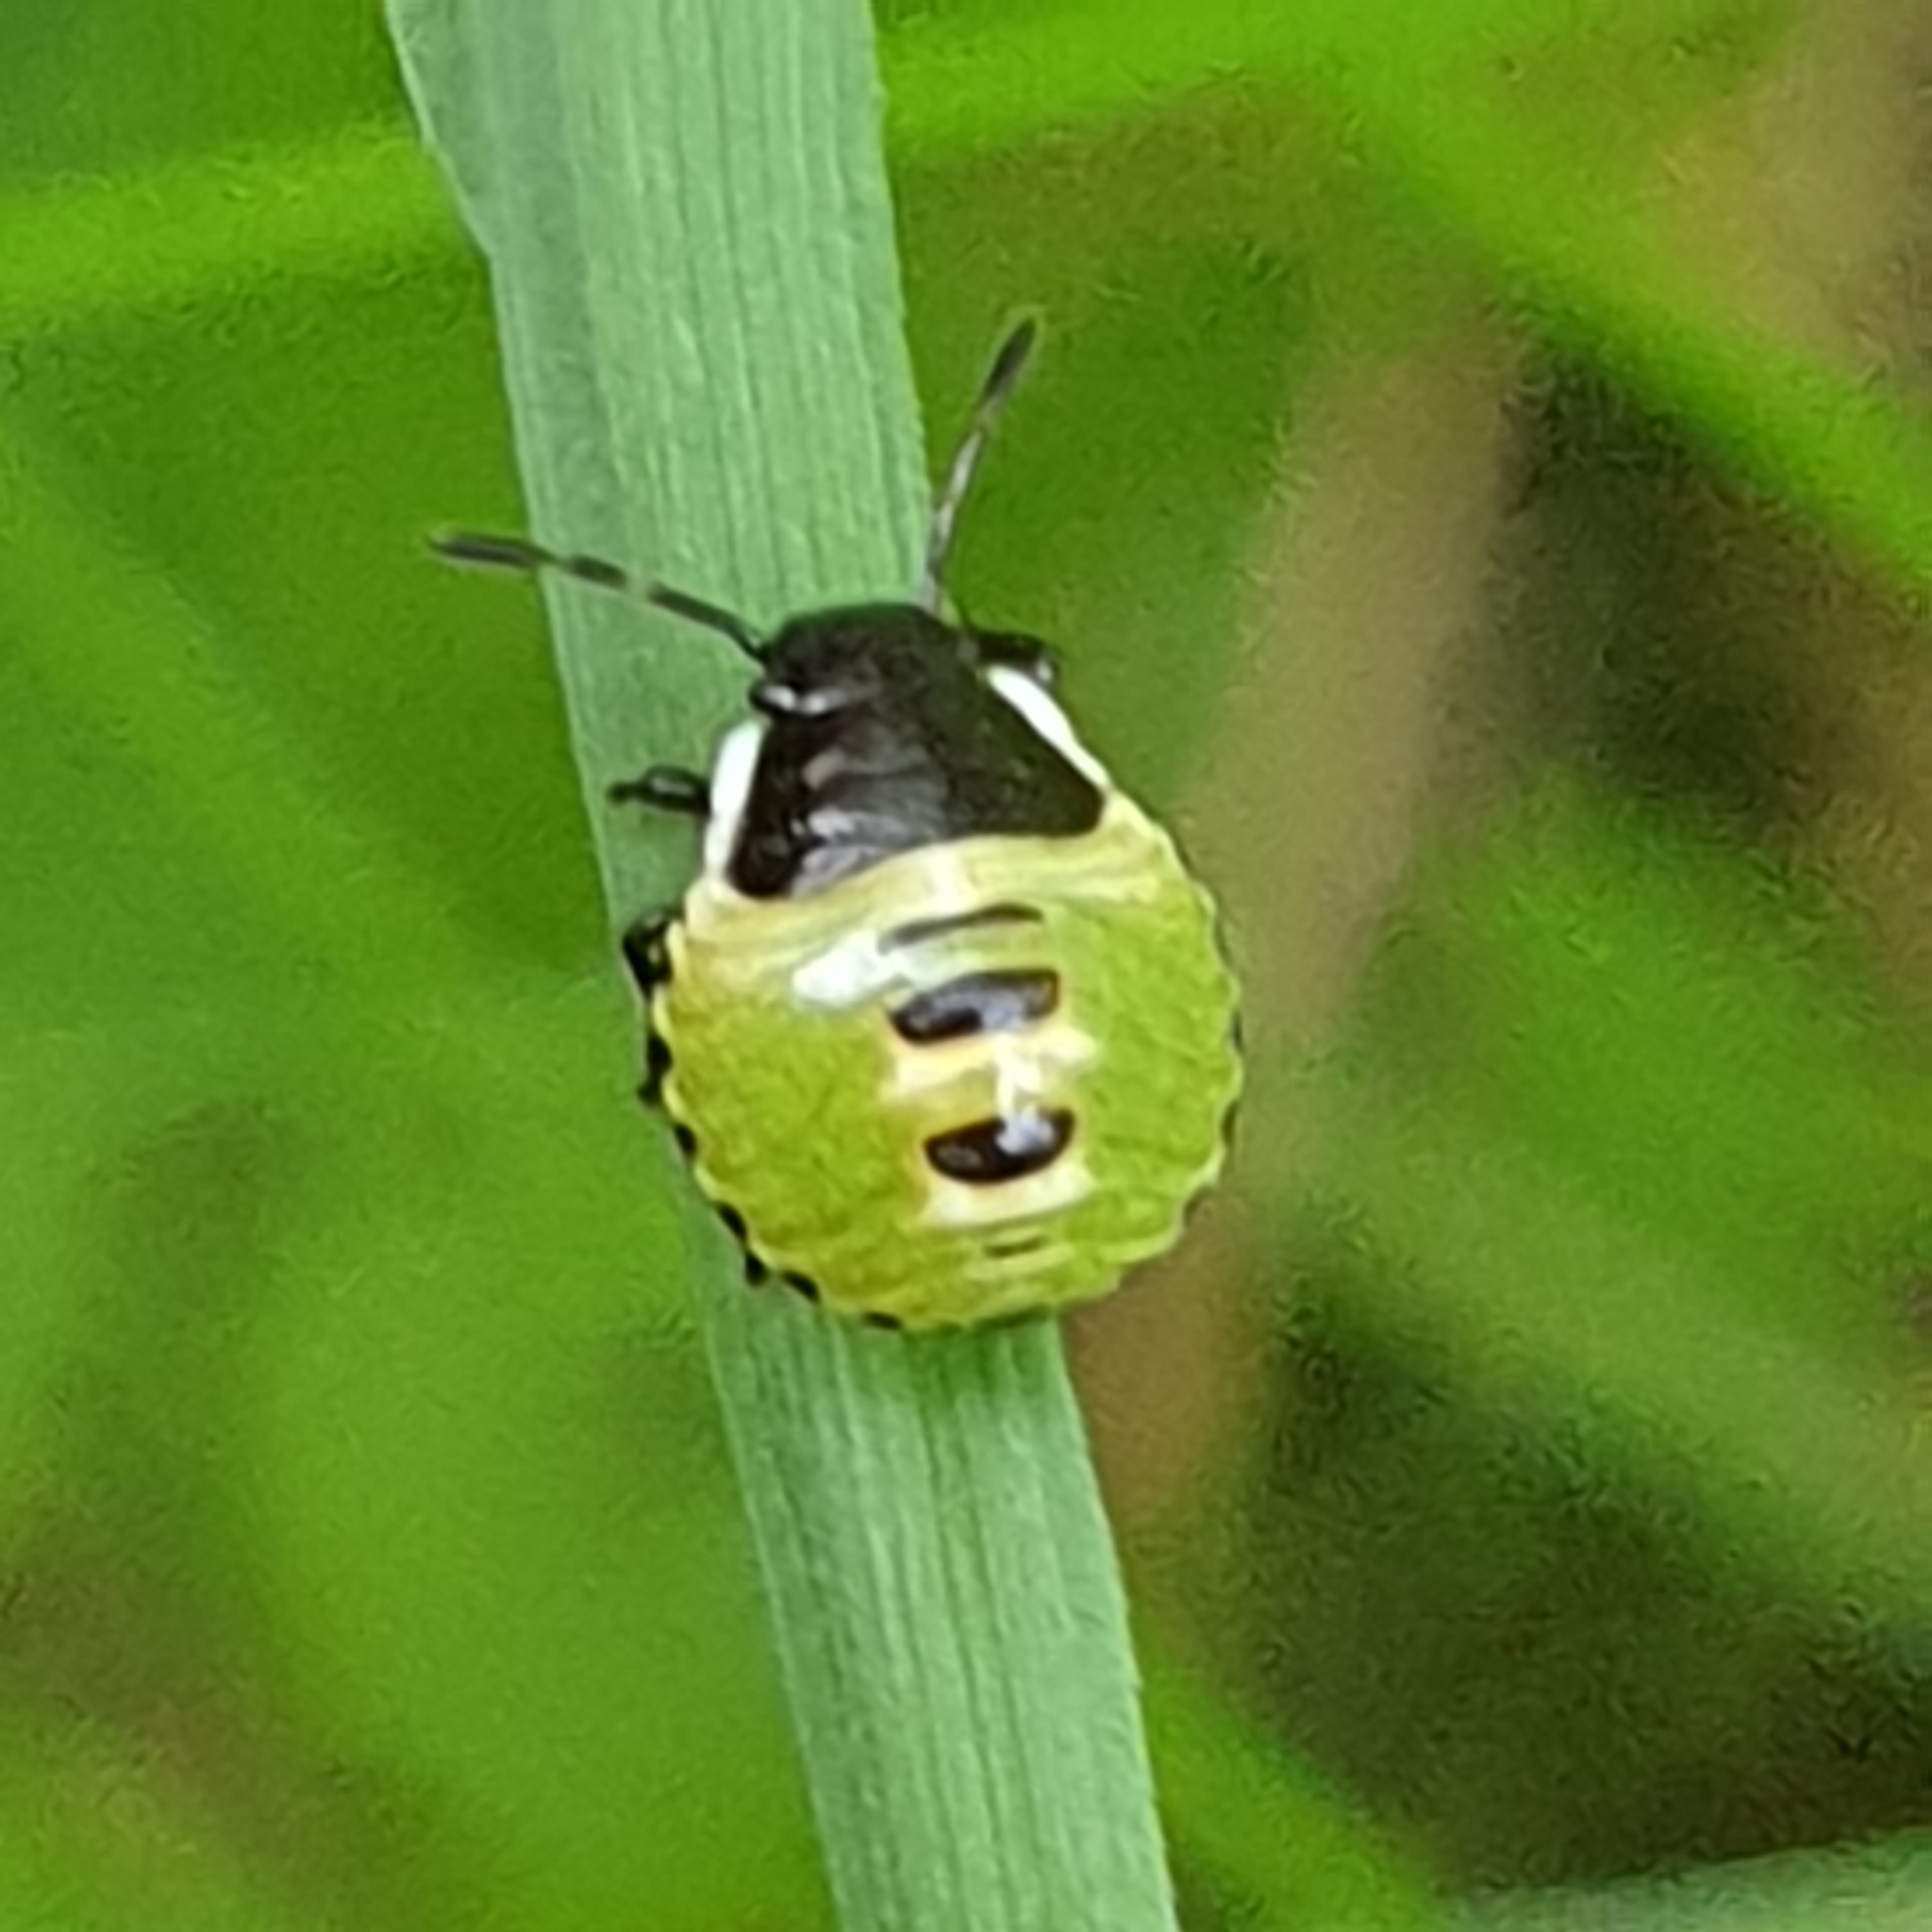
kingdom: Animalia
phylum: Arthropoda
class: Insecta
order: Hemiptera
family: Pentatomidae
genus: Palomena
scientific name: Palomena prasina
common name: Green shieldbug
